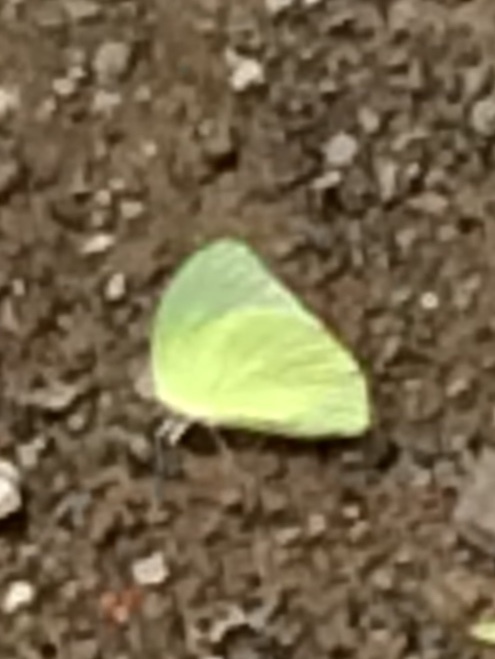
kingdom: Animalia
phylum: Arthropoda
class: Insecta
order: Lepidoptera
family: Pieridae
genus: Catopsilia
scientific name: Catopsilia pomona
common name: Common emigrant
